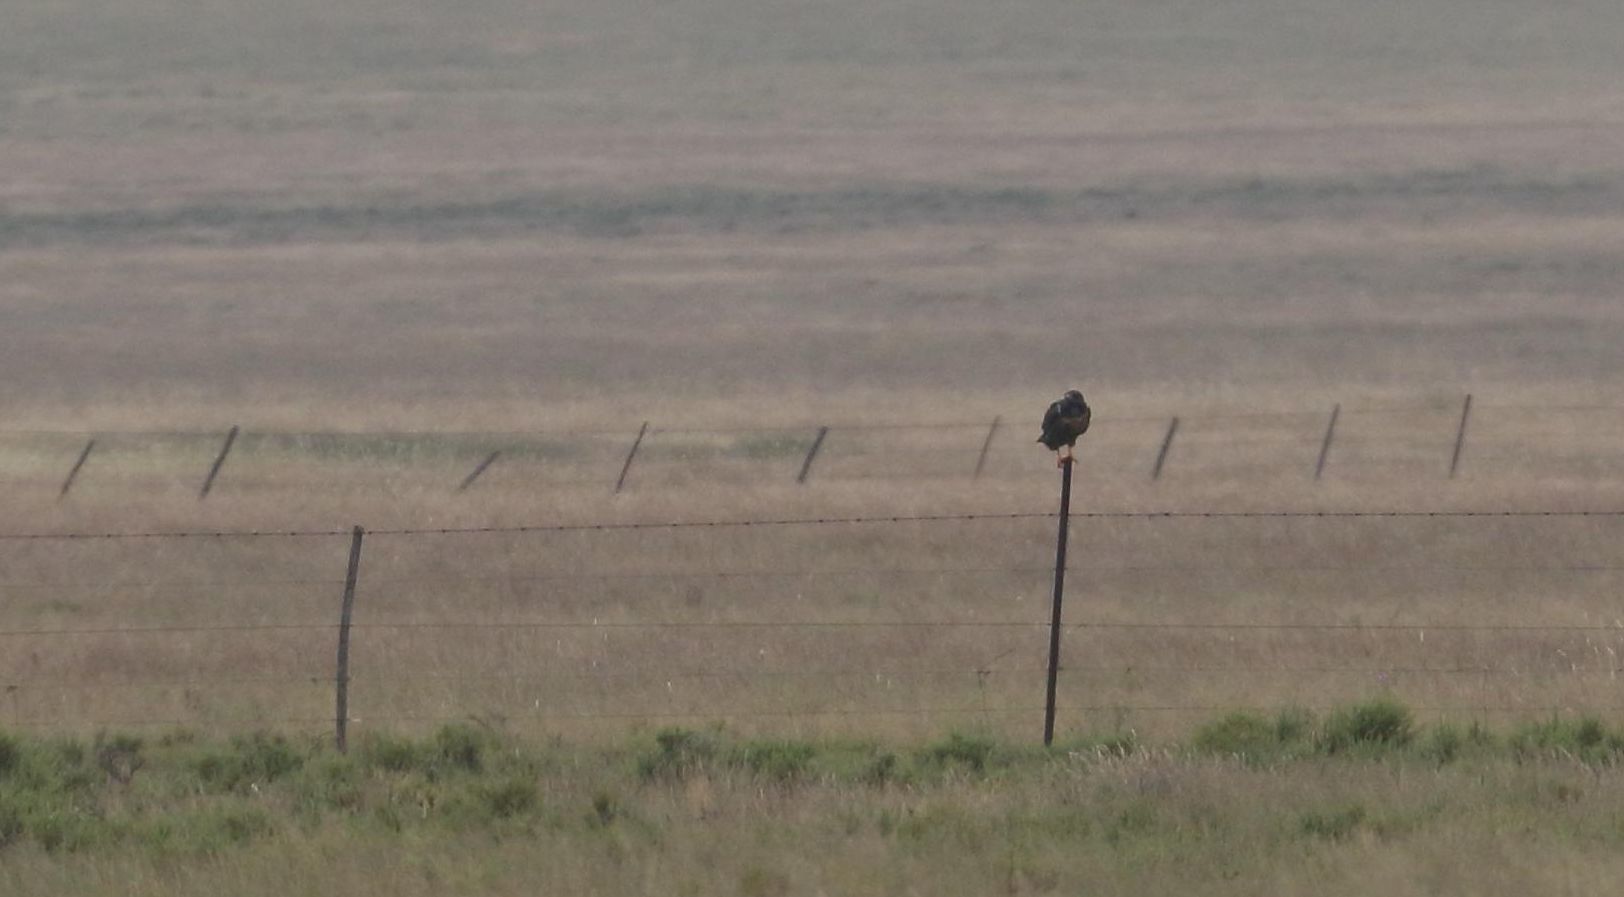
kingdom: Animalia
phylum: Chordata
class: Aves
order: Accipitriformes
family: Accipitridae
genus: Buteo
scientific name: Buteo rufofuscus
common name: Jackal buzzard
